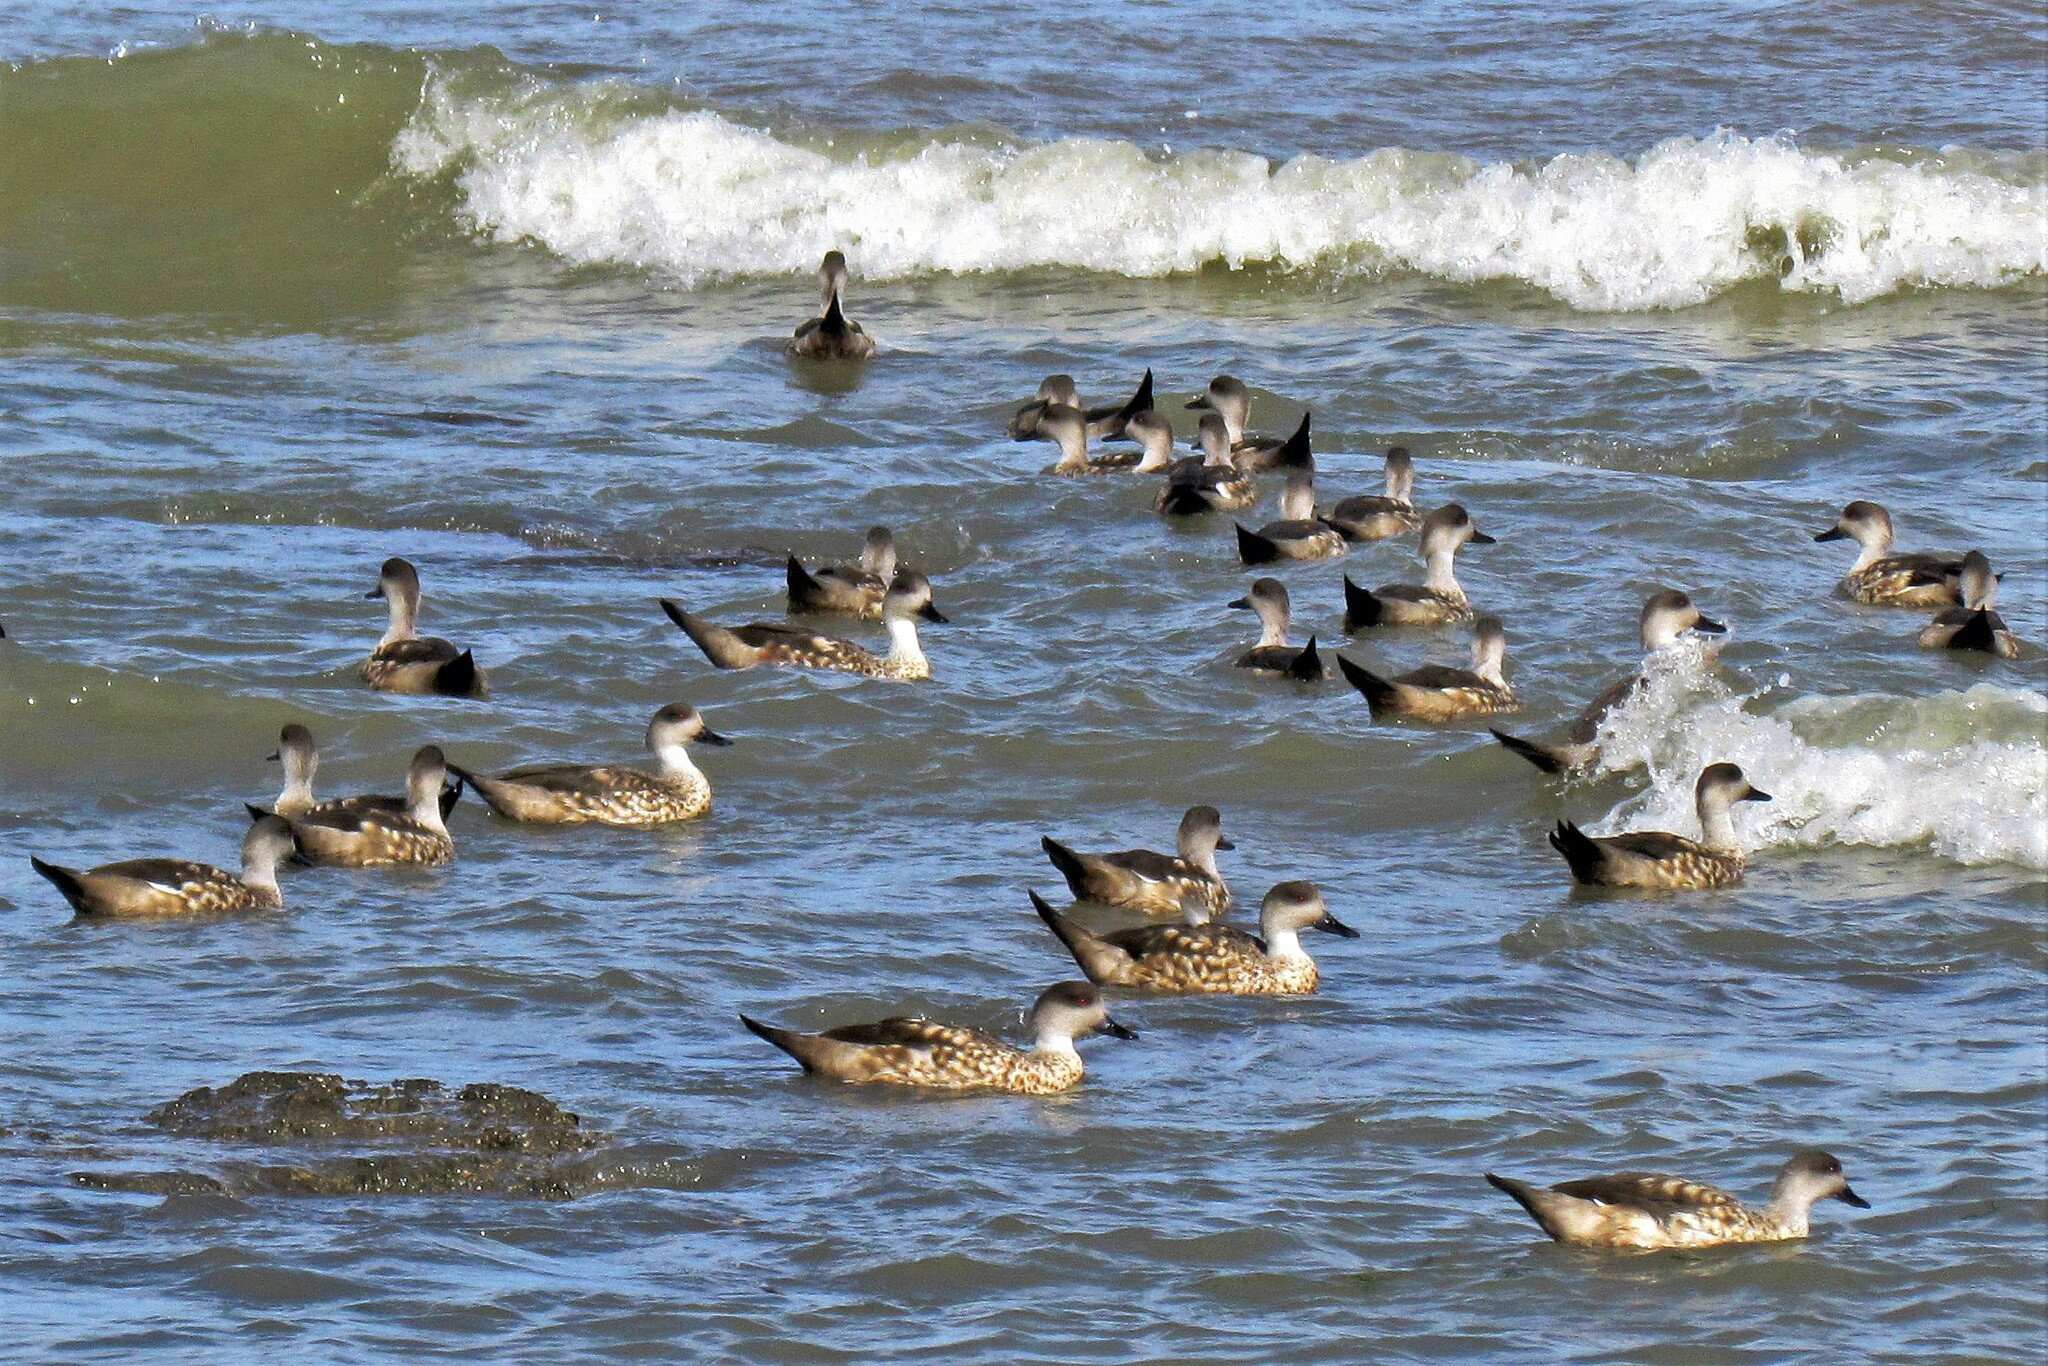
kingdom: Animalia
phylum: Chordata
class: Aves
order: Anseriformes
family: Anatidae
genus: Lophonetta
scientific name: Lophonetta specularioides
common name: Crested duck
